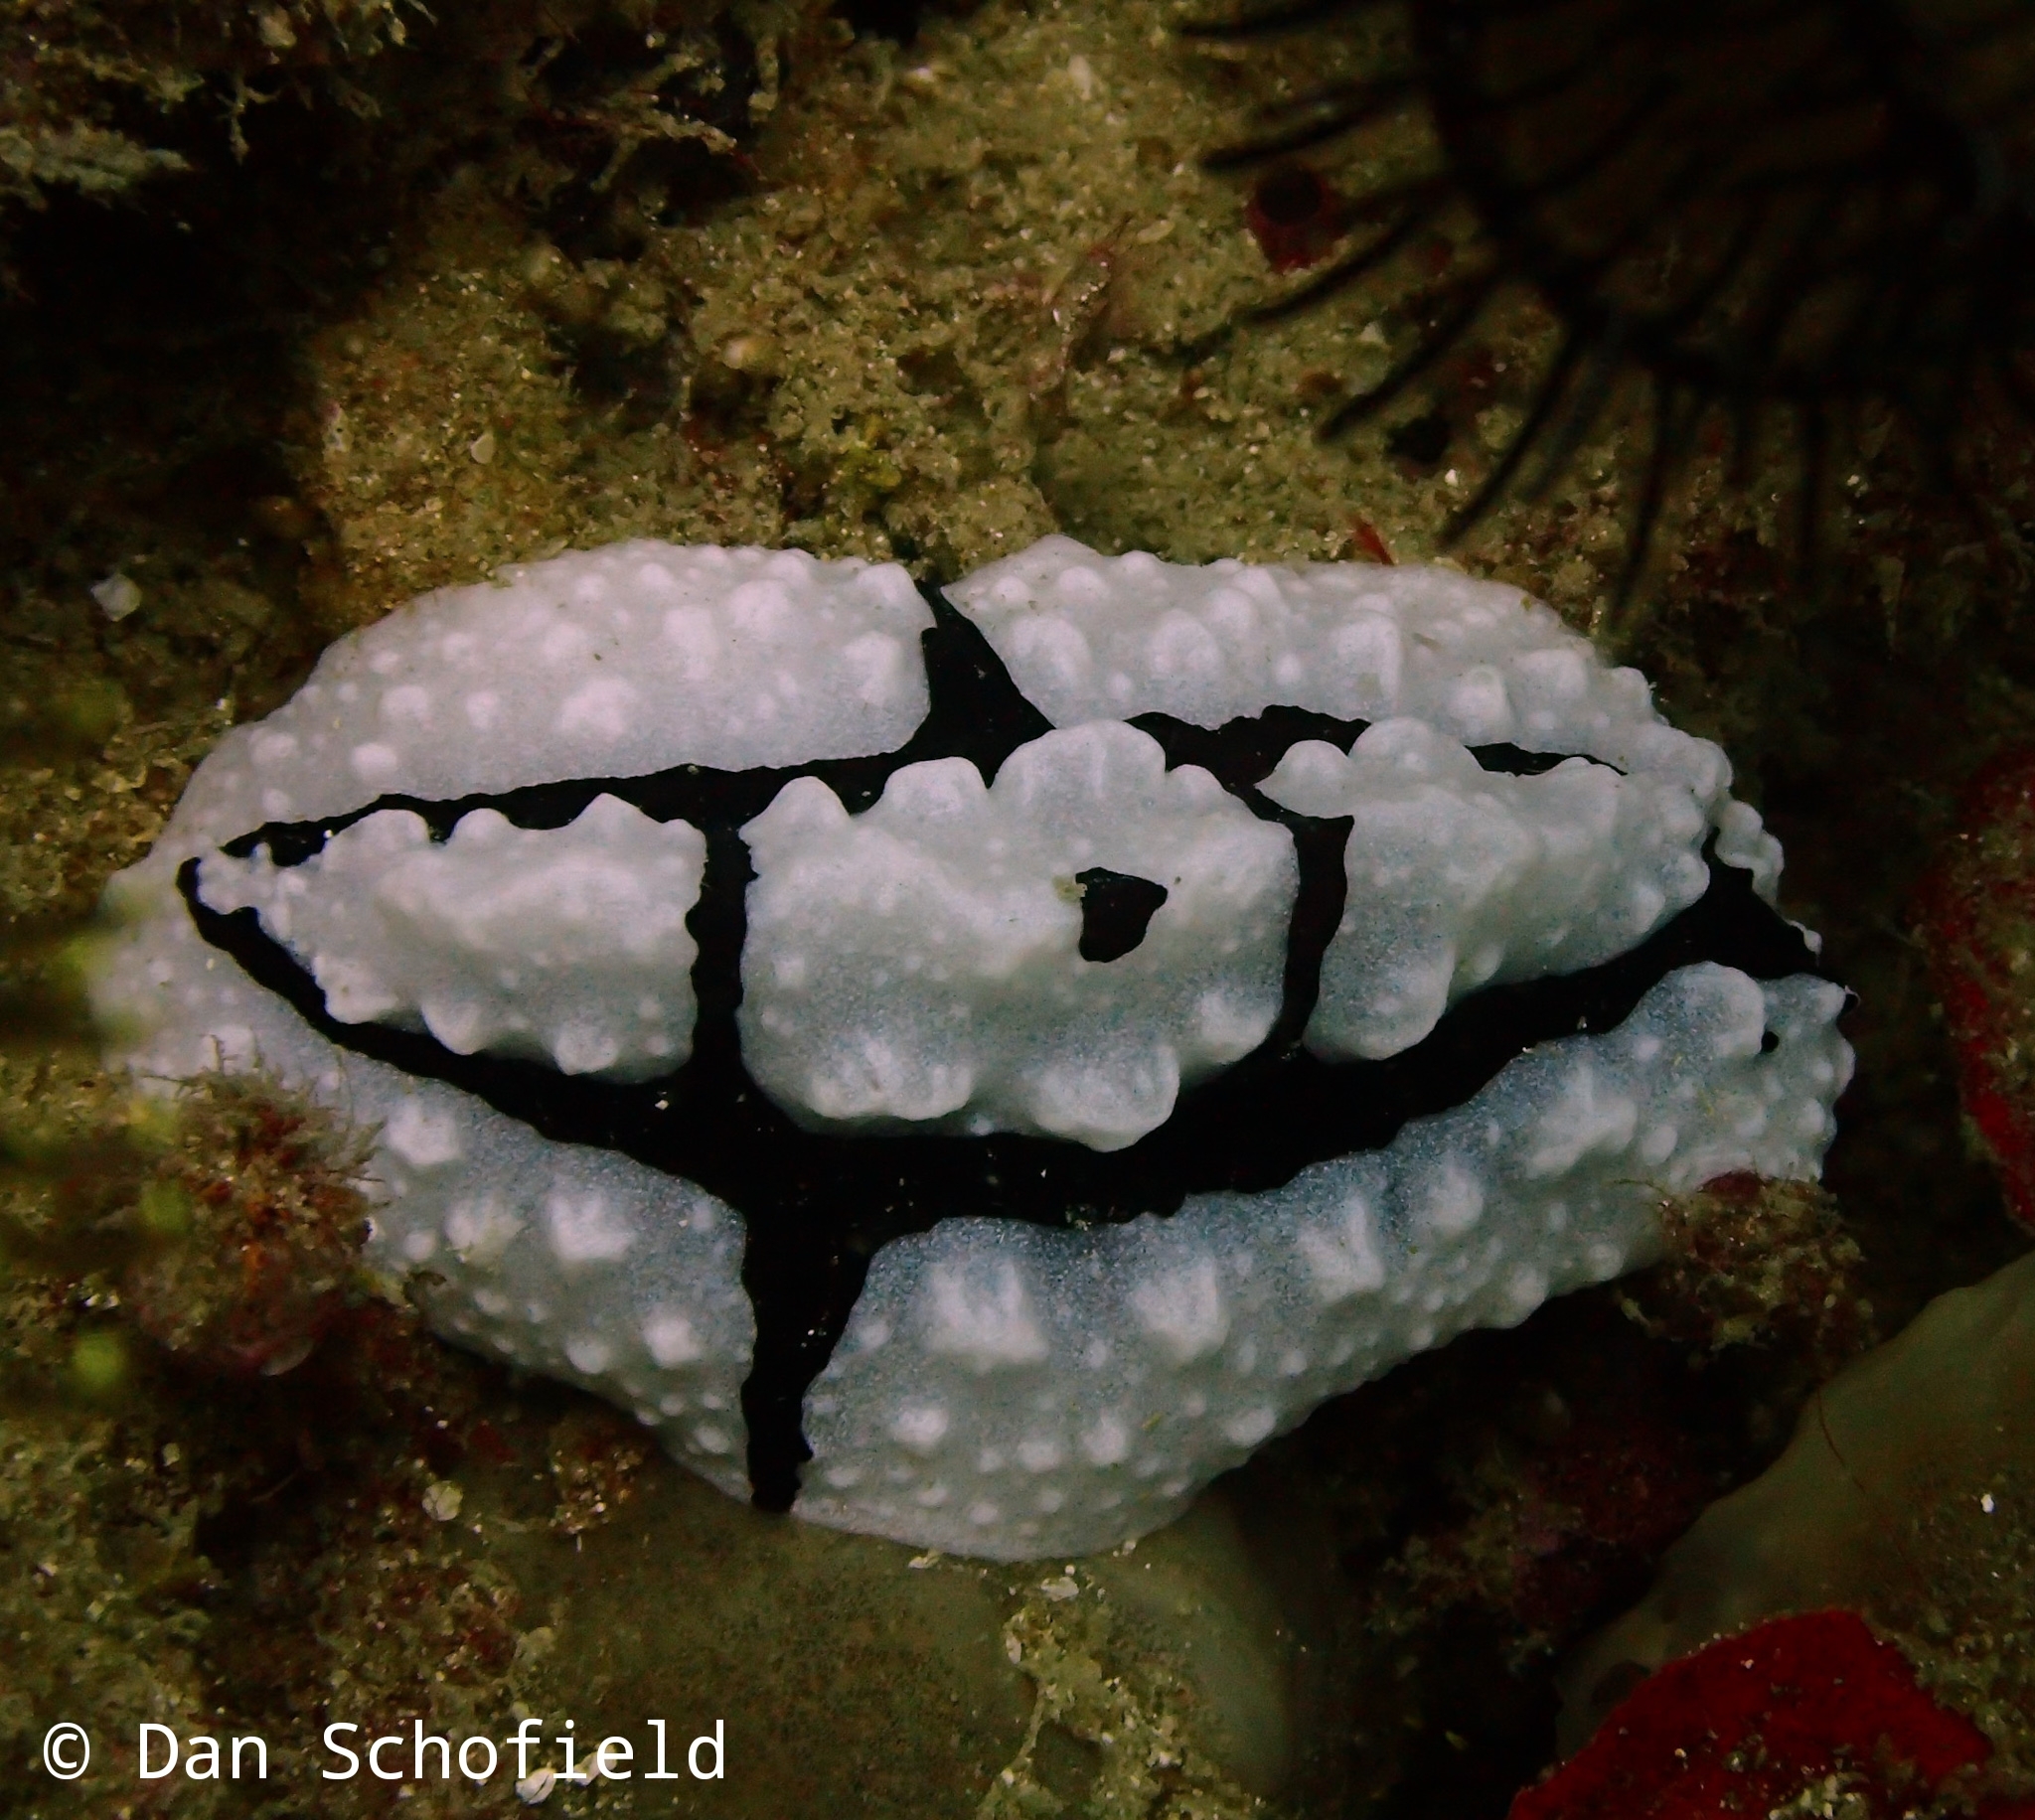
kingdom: Animalia
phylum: Mollusca
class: Gastropoda
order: Nudibranchia
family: Phyllidiidae
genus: Phyllidiopsis
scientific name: Phyllidiopsis shireenae
